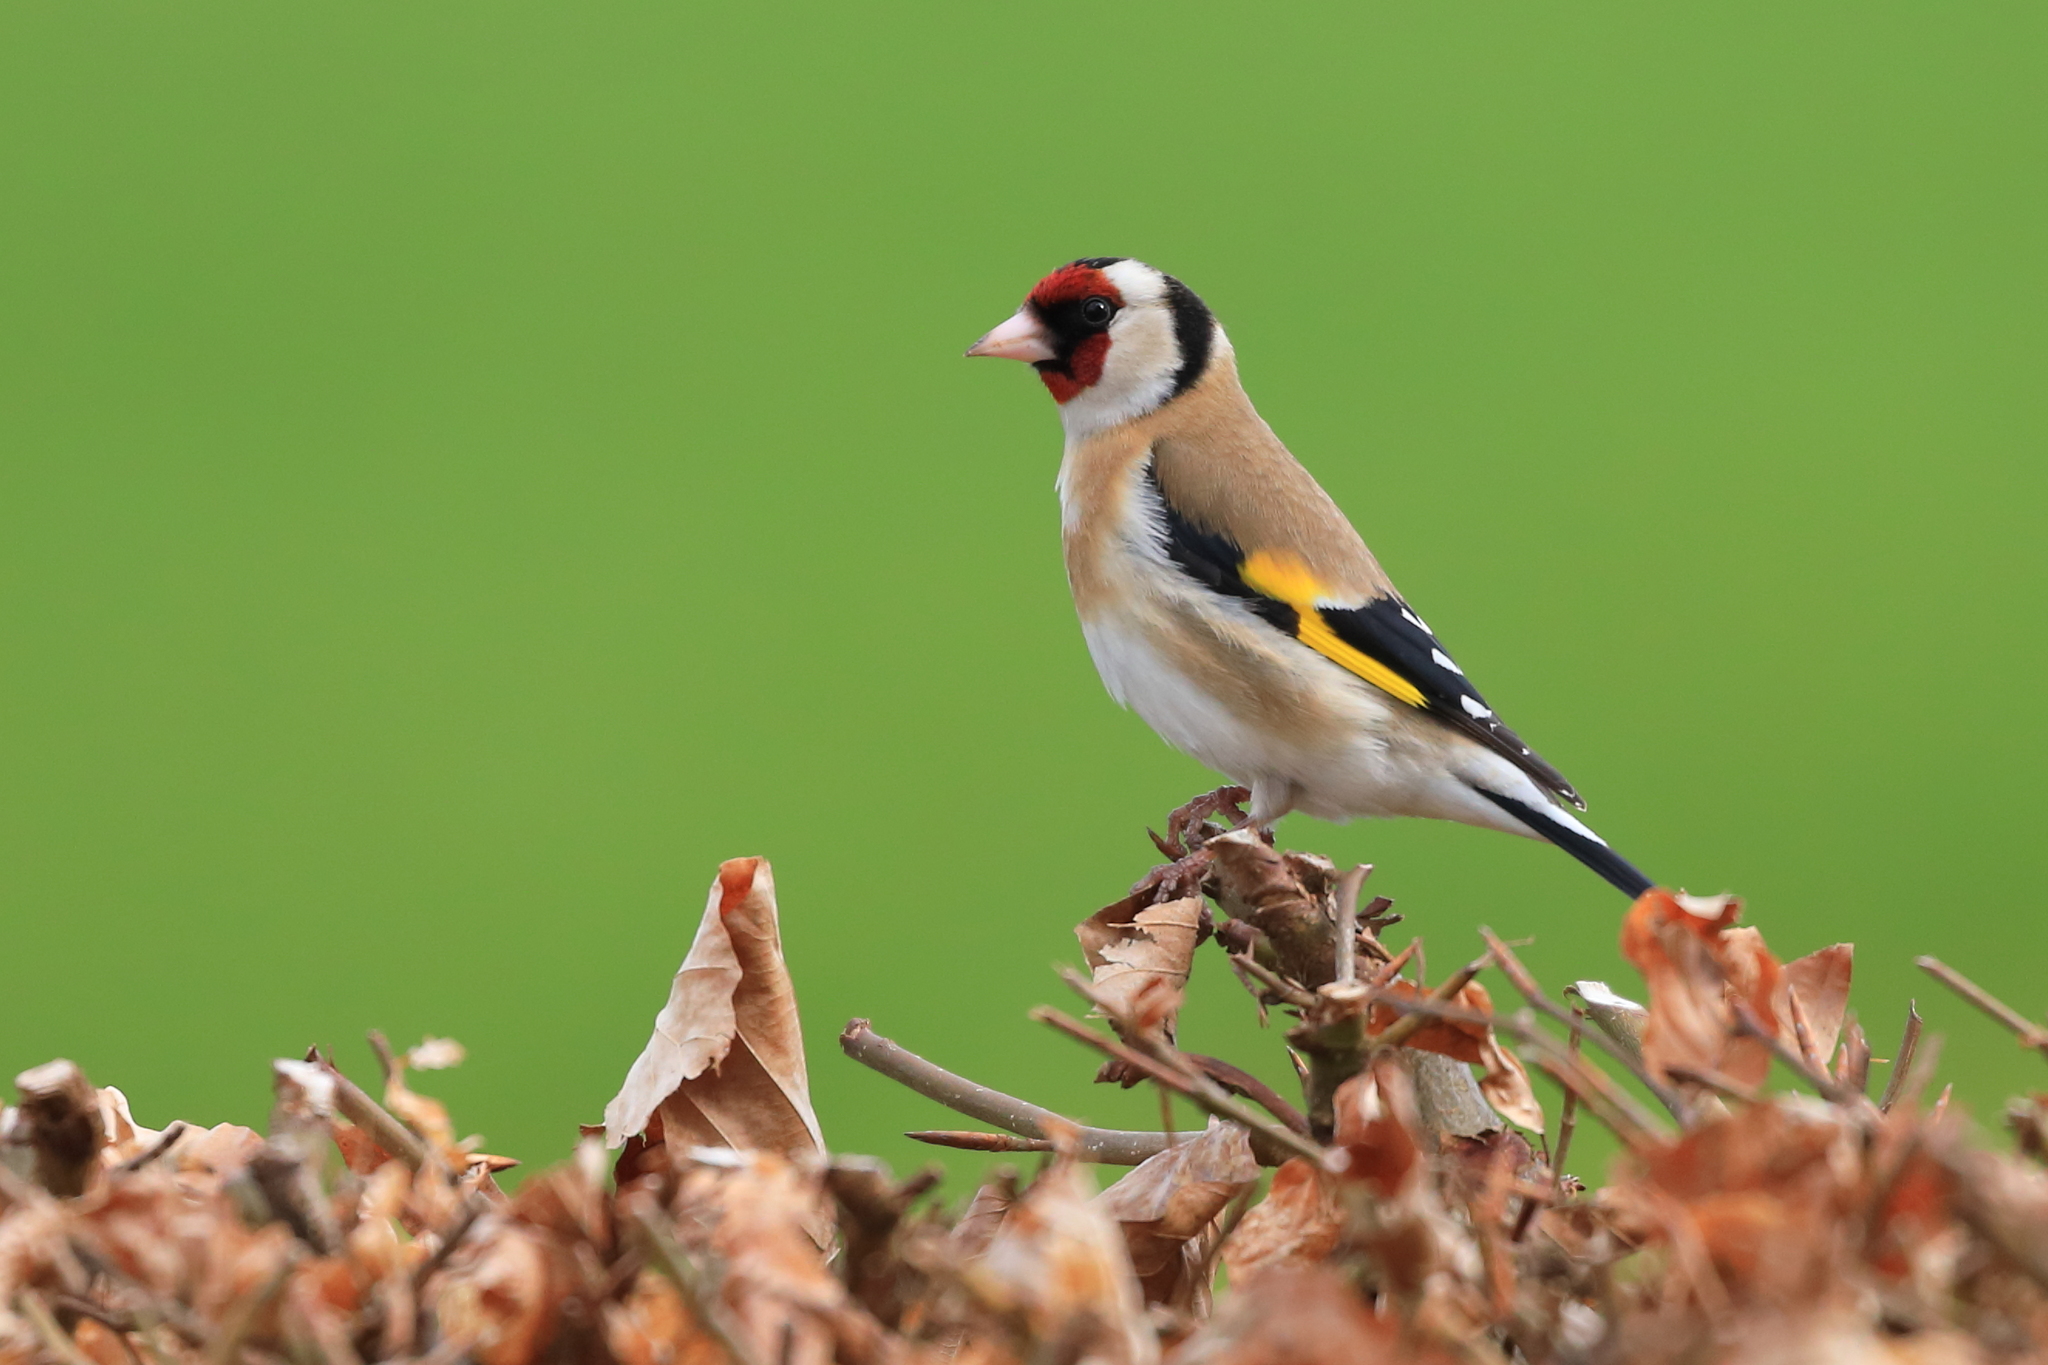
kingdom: Animalia
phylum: Chordata
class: Aves
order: Passeriformes
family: Fringillidae
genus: Carduelis
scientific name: Carduelis carduelis
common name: European goldfinch
